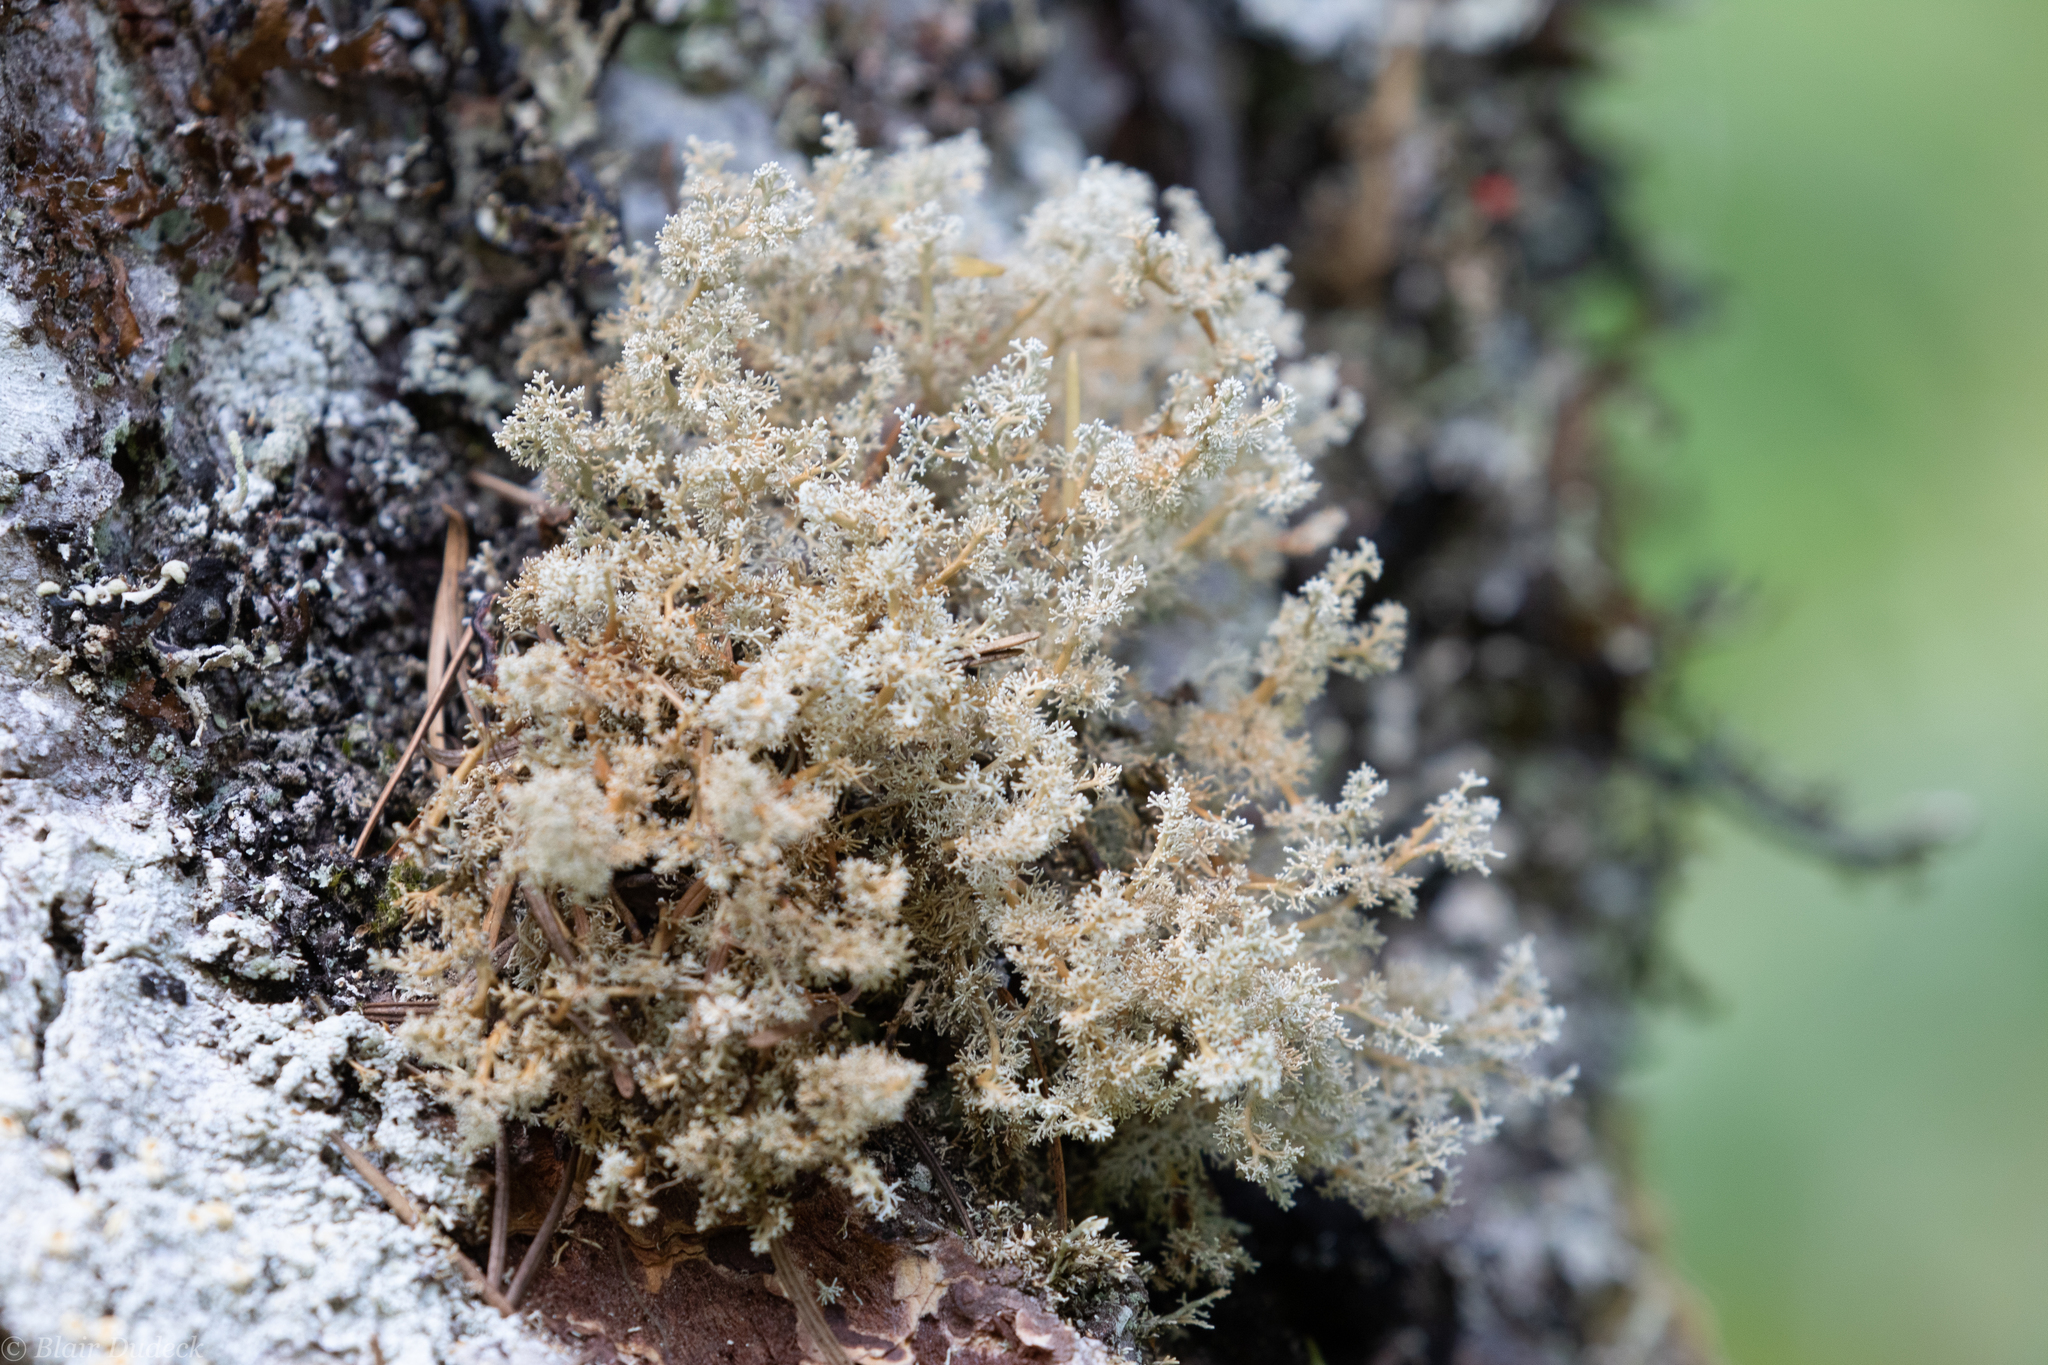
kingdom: Fungi
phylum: Ascomycota
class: Lecanoromycetes
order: Lecanorales
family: Sphaerophoraceae
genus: Sphaerophorus
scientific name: Sphaerophorus globosus
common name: Globe ball lichen
